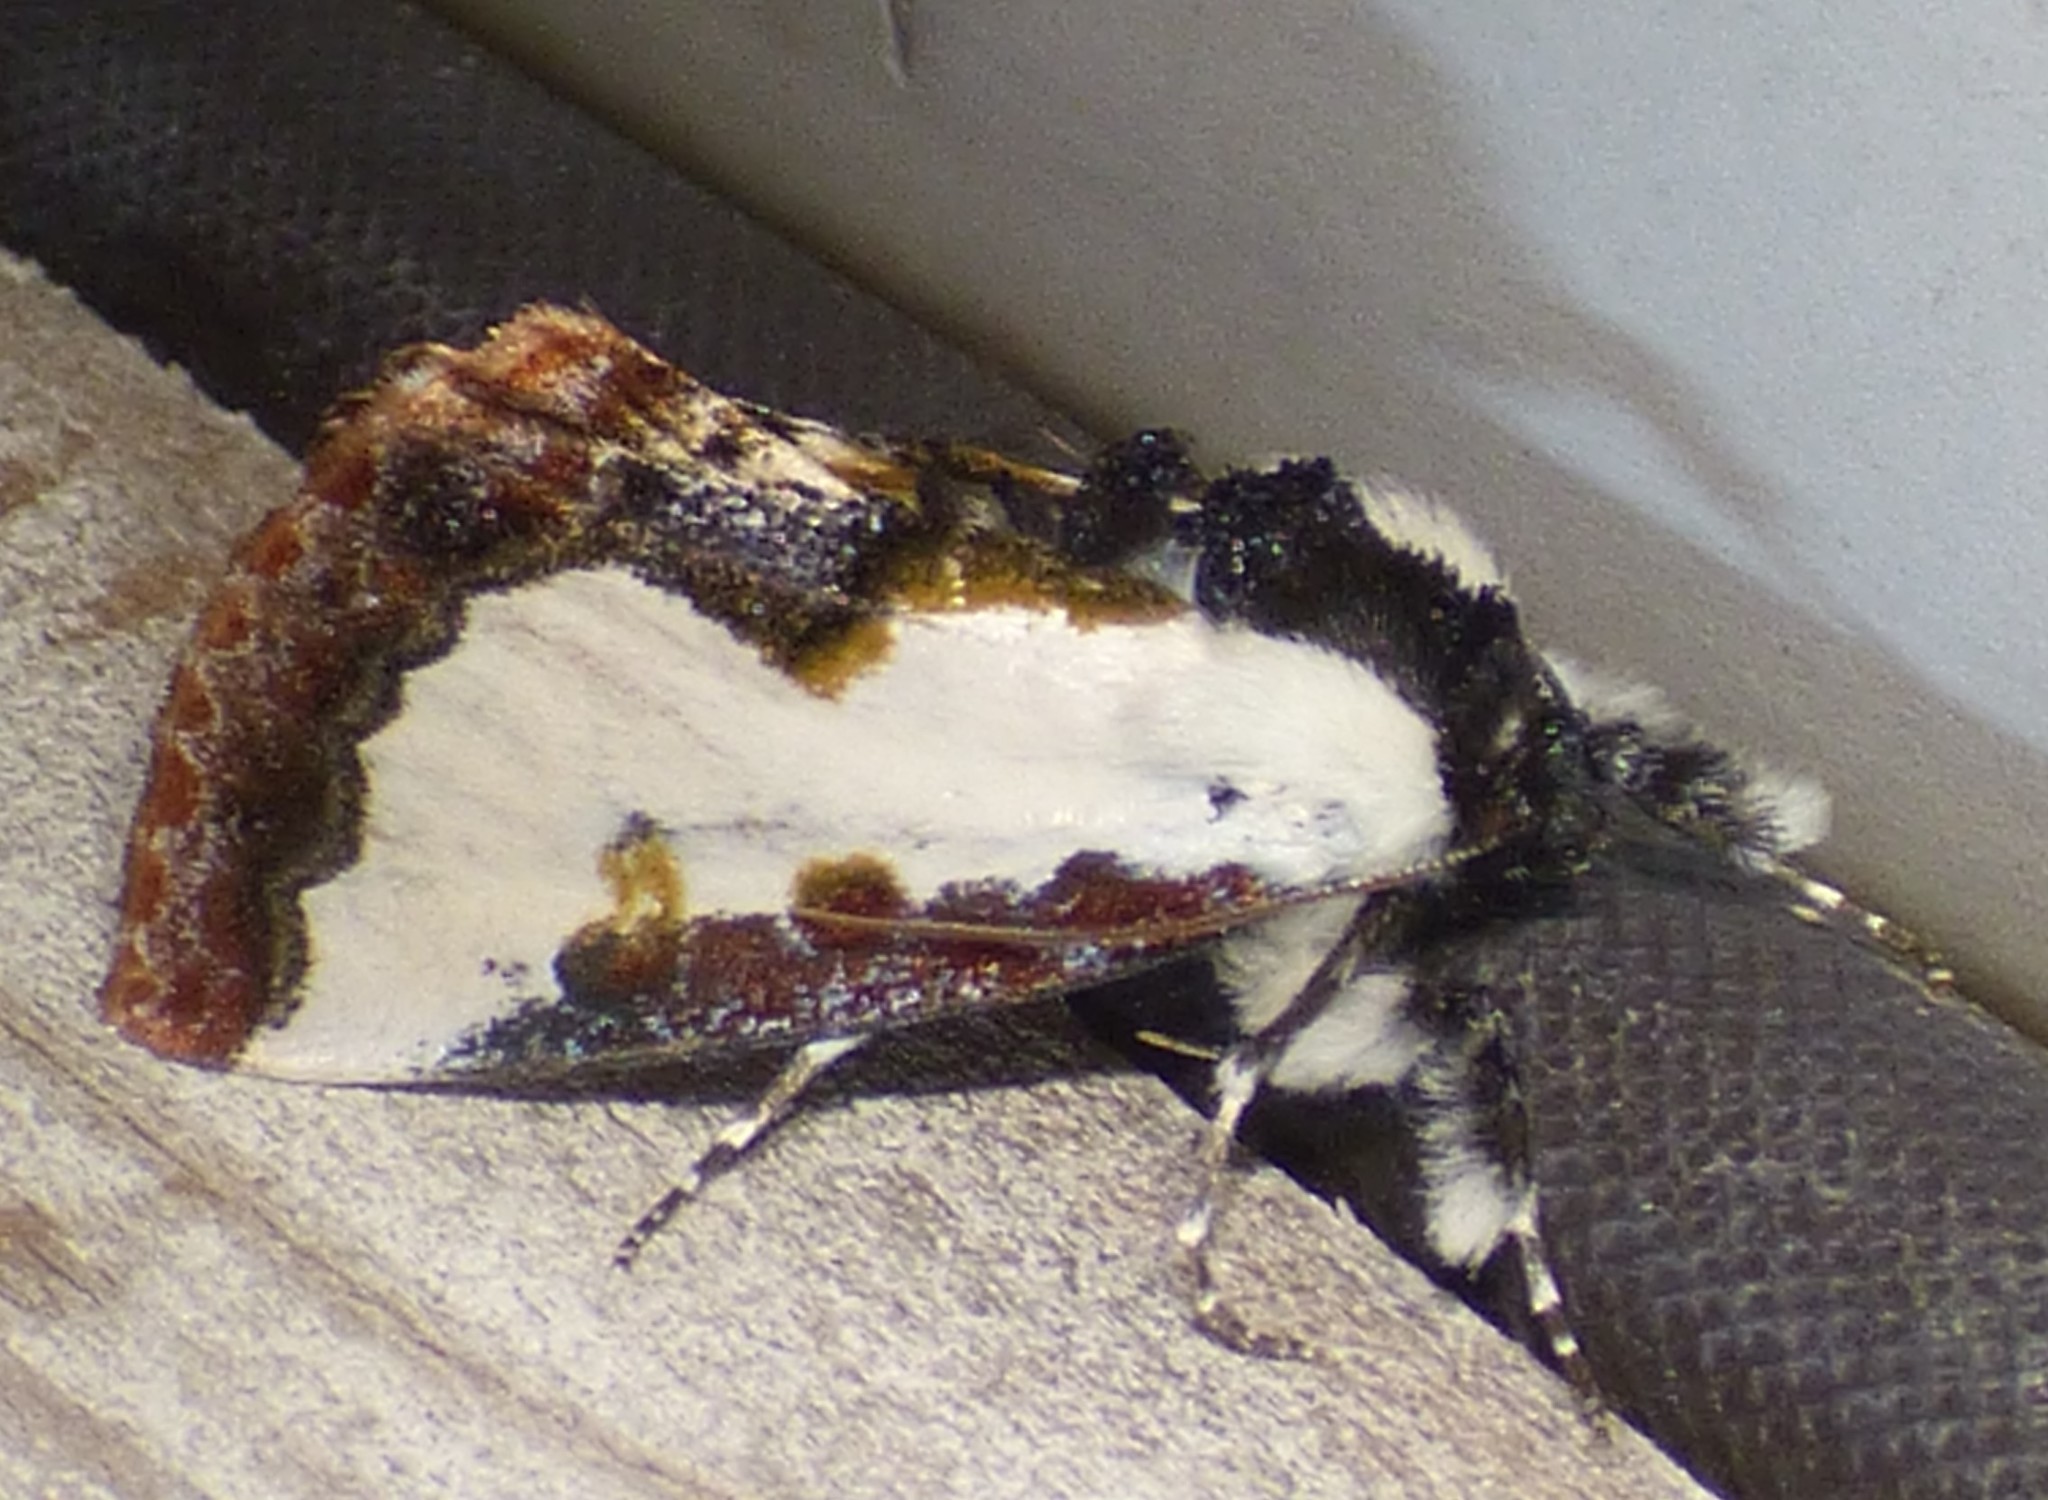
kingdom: Animalia
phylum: Arthropoda
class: Insecta
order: Lepidoptera
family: Noctuidae
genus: Eudryas
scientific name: Eudryas unio
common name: Pearly wood-nymph
